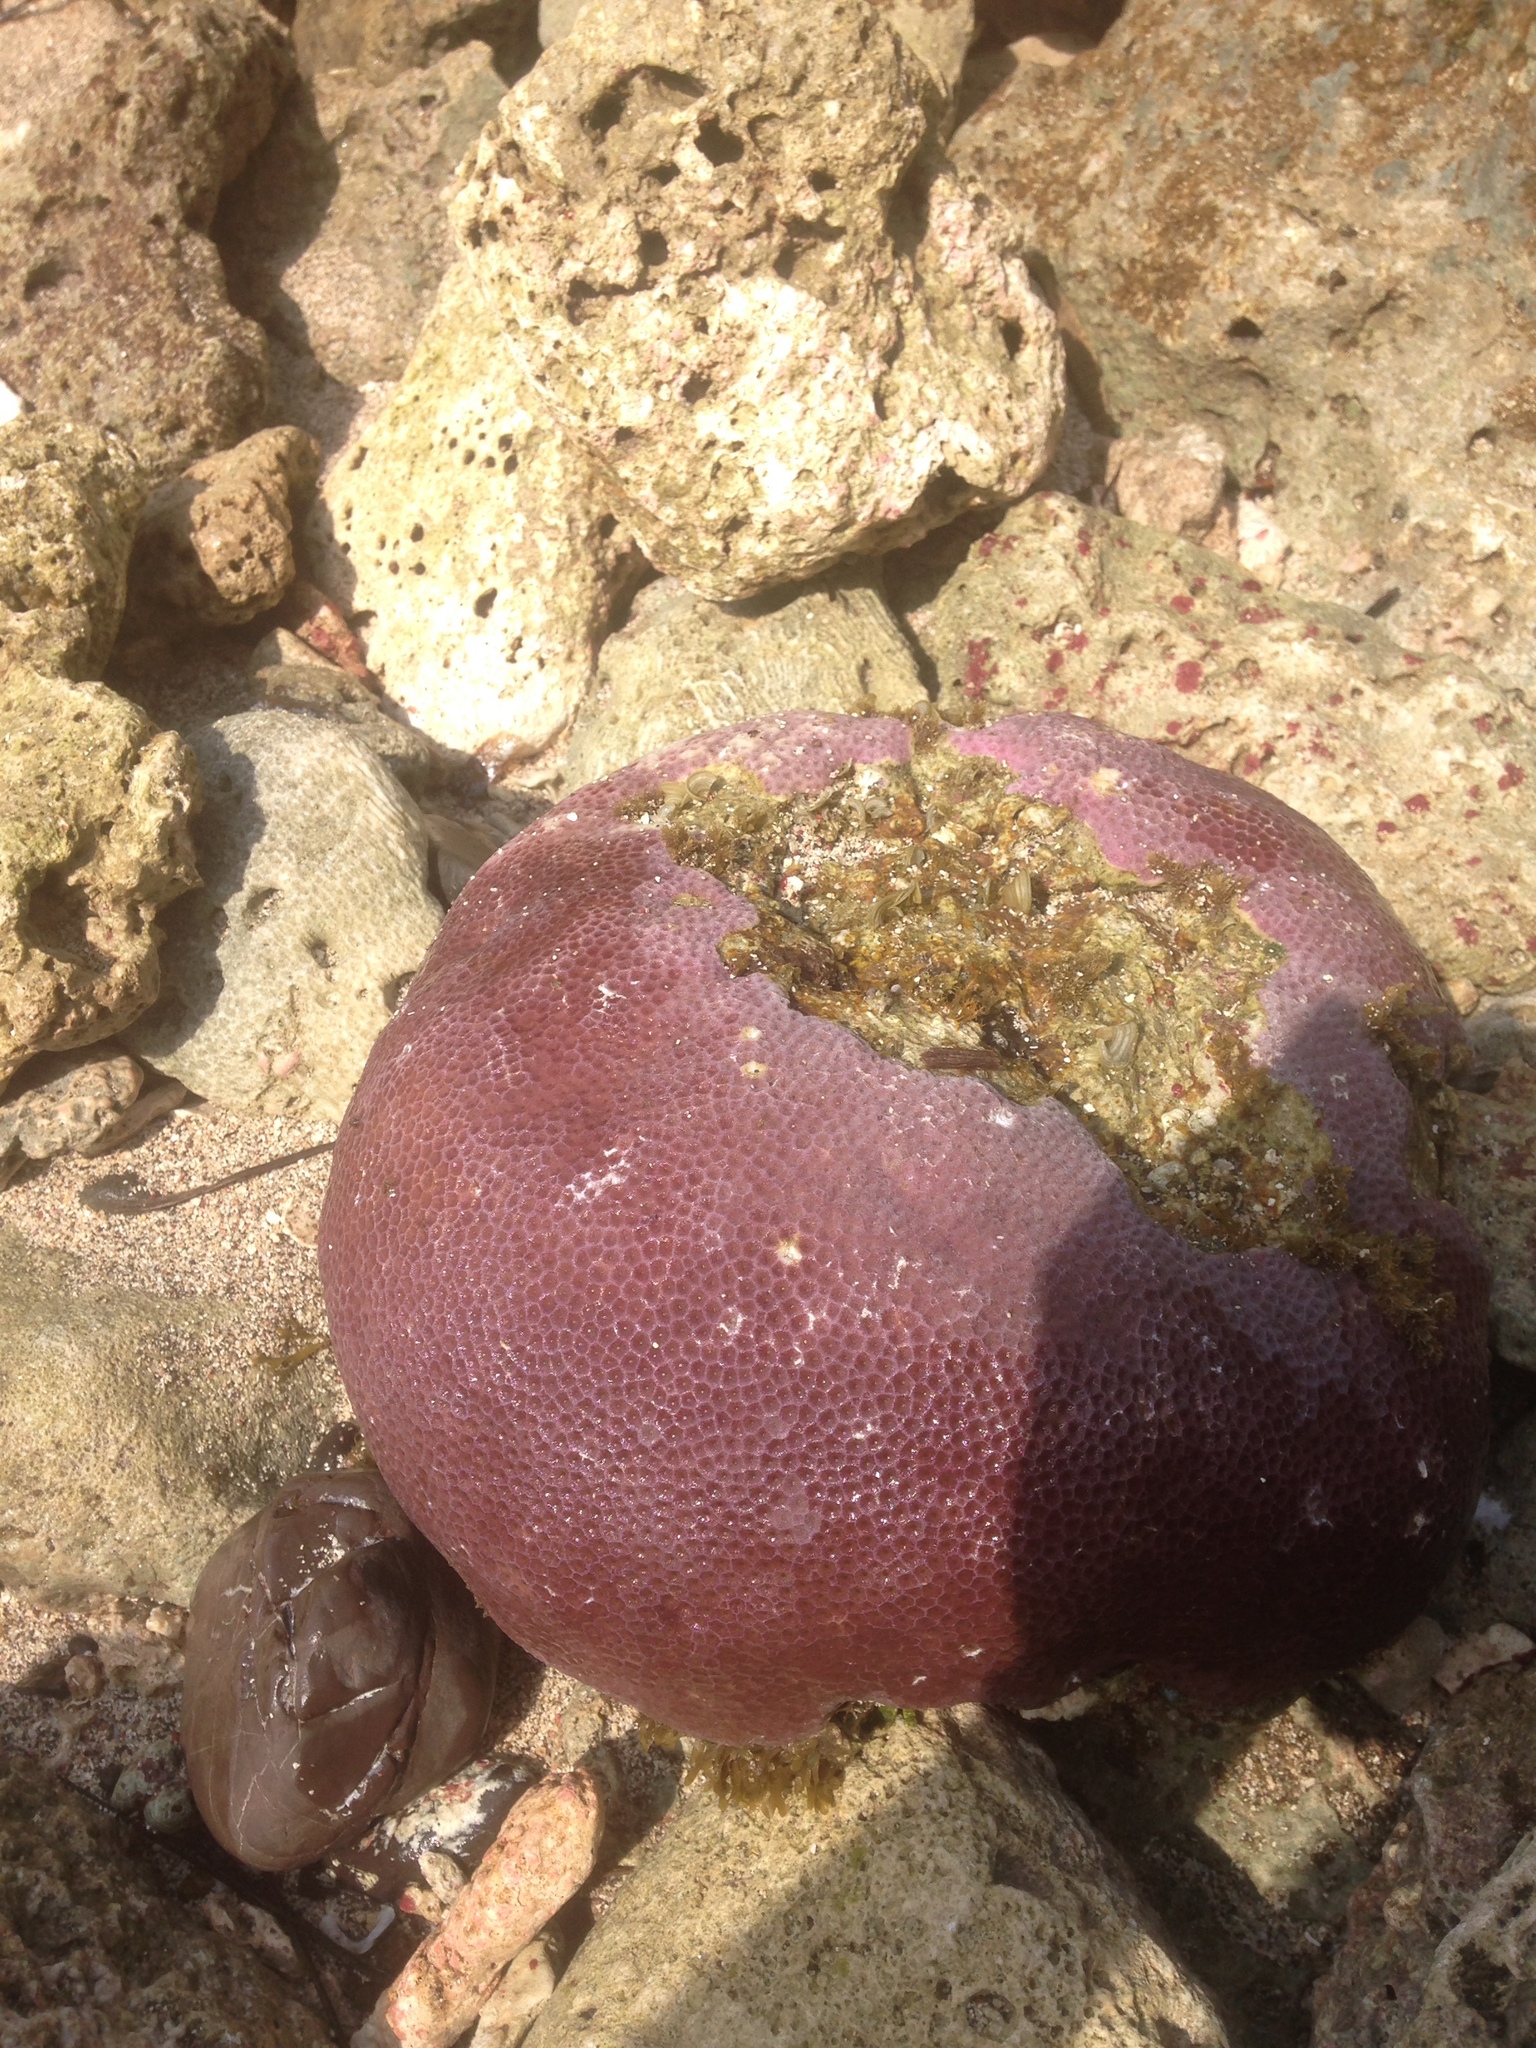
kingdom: Animalia
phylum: Cnidaria
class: Anthozoa
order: Scleractinia
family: Rhizangiidae
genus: Siderastrea
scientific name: Siderastrea siderea
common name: Massive starlet coral
